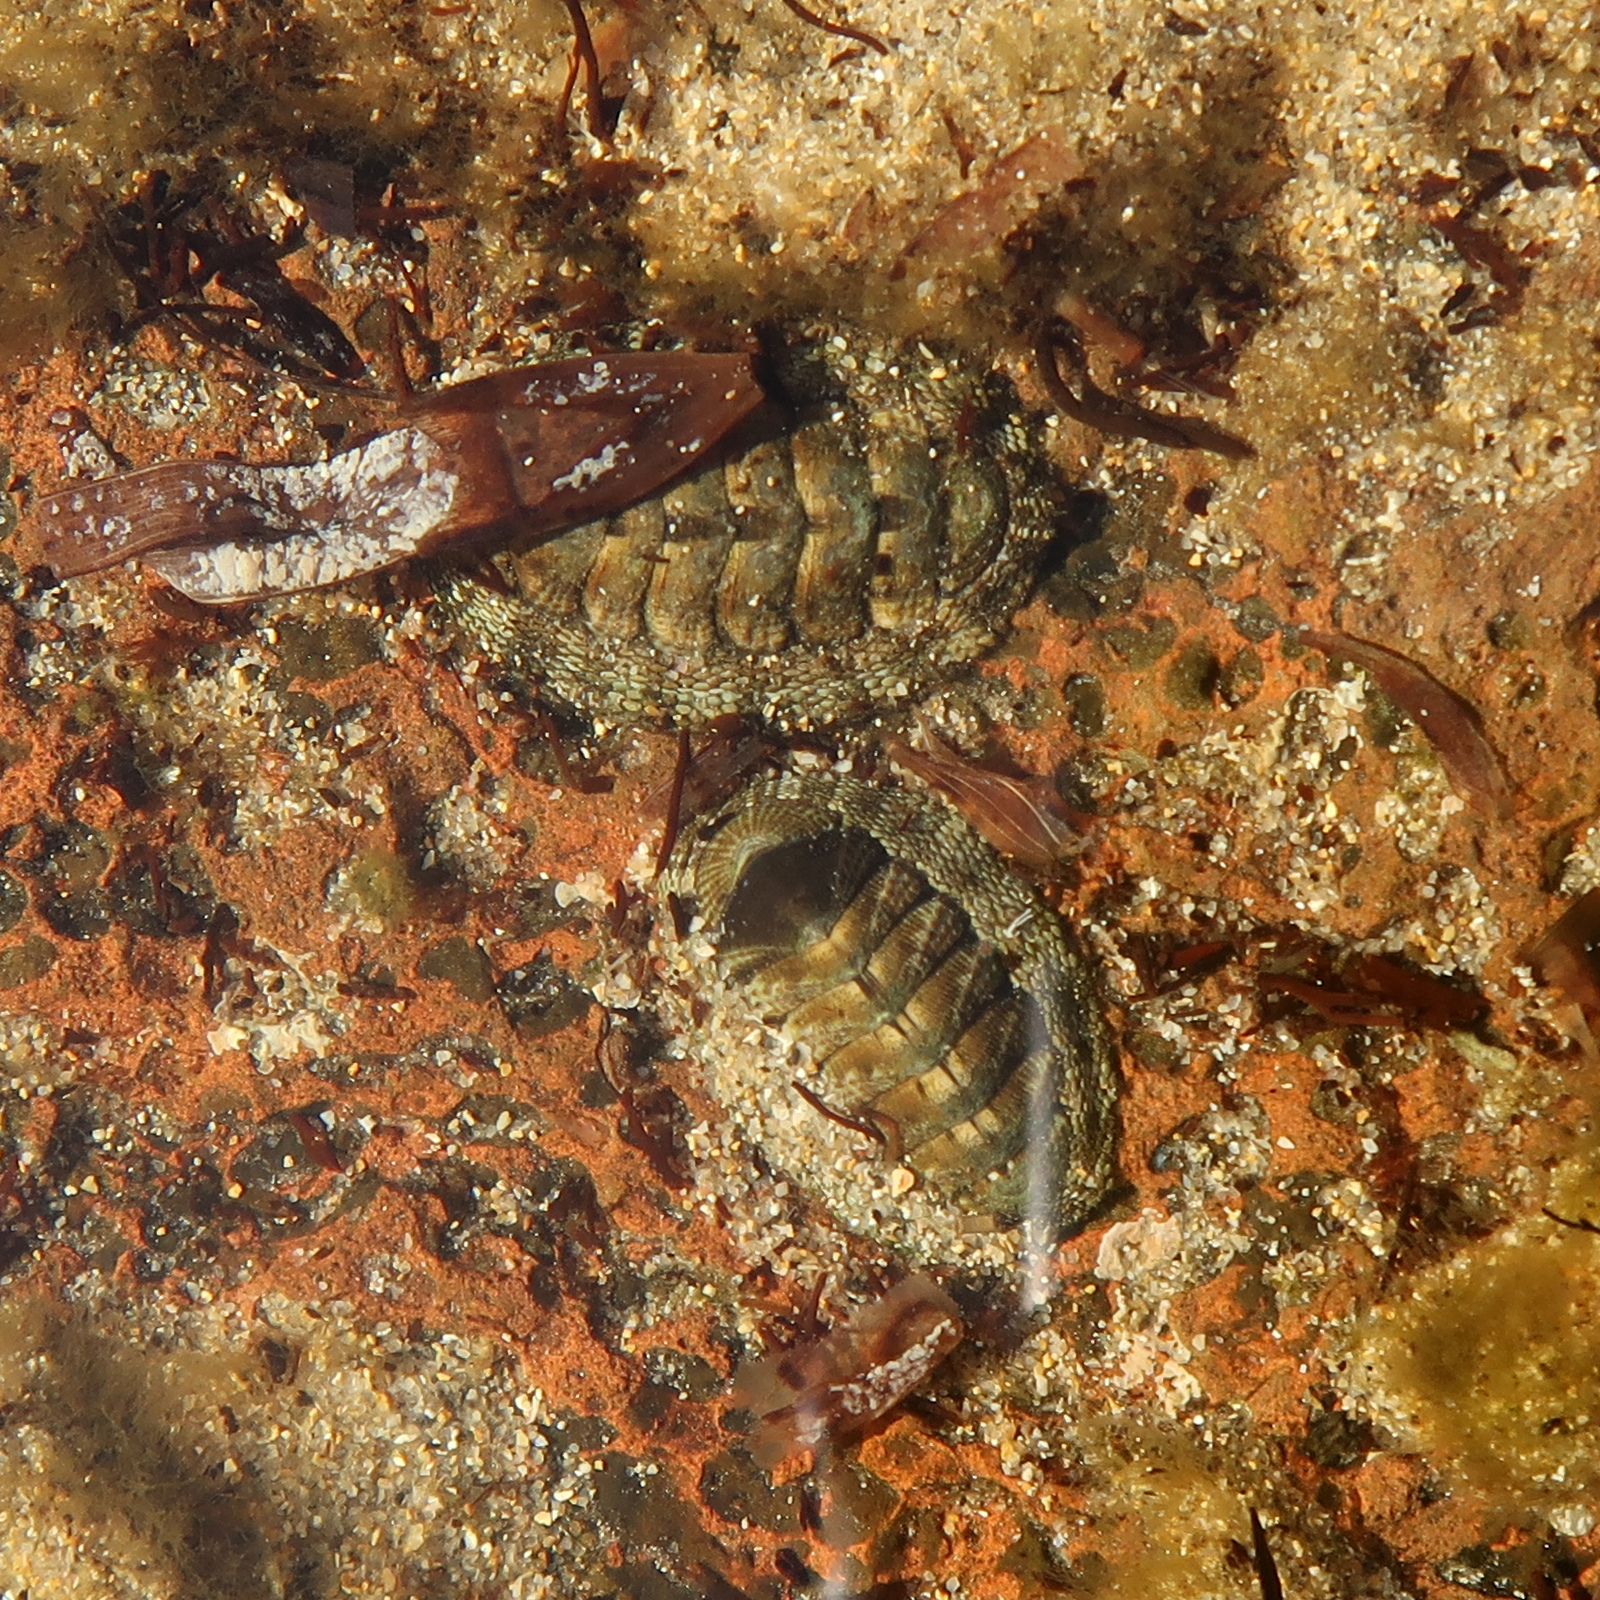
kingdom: Animalia
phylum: Mollusca
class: Polyplacophora
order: Chitonida
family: Chitonidae
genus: Sypharochiton
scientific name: Sypharochiton pelliserpentis
